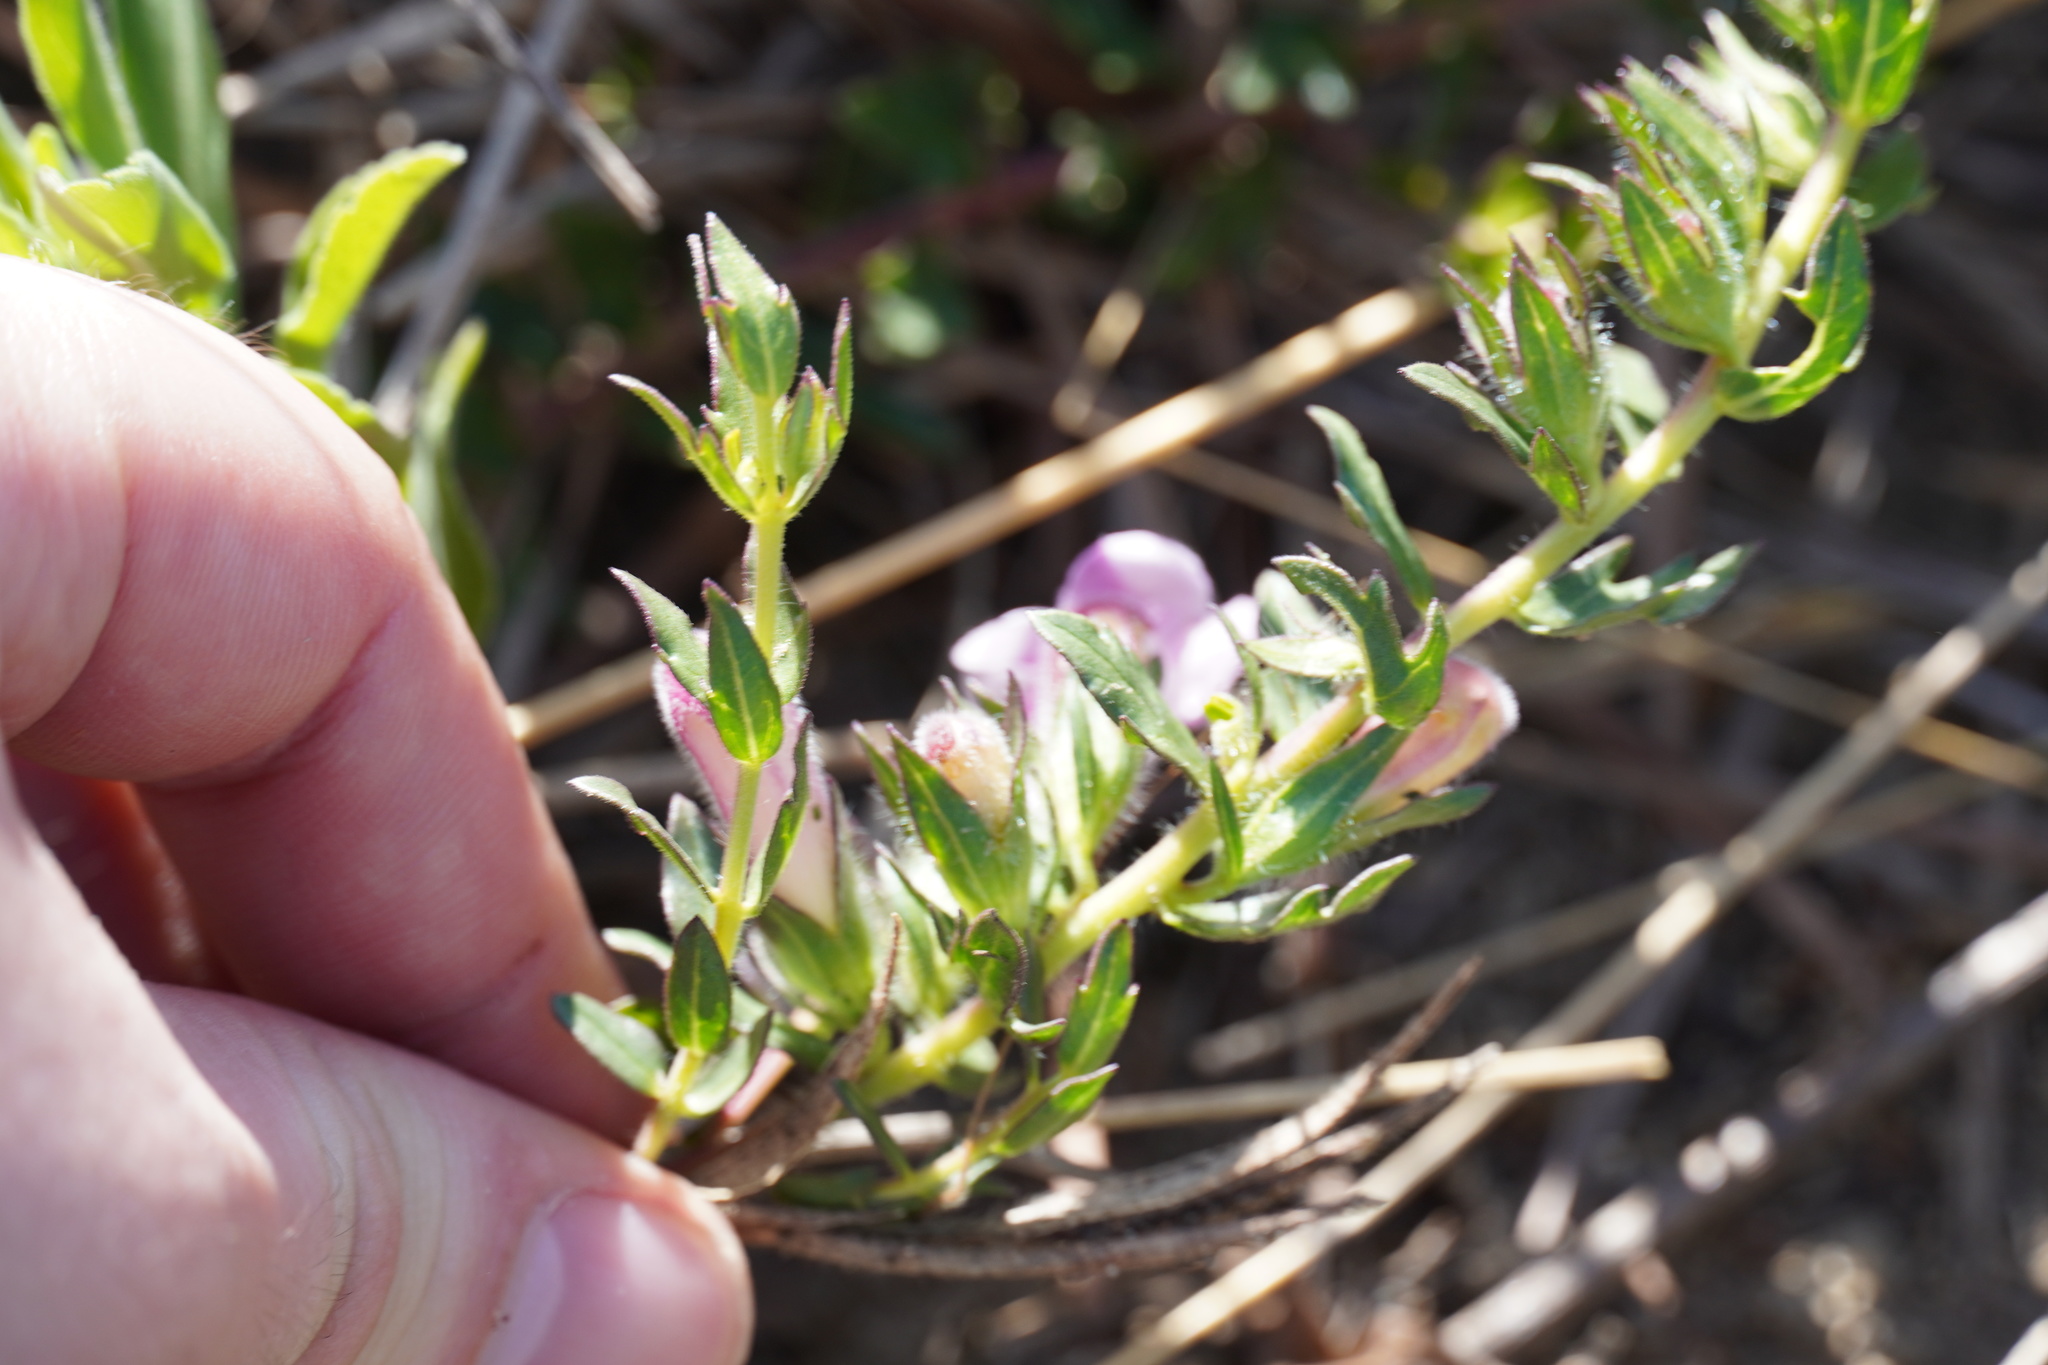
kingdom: Plantae
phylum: Tracheophyta
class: Magnoliopsida
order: Lamiales
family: Orobanchaceae
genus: Graderia
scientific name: Graderia subintegra
